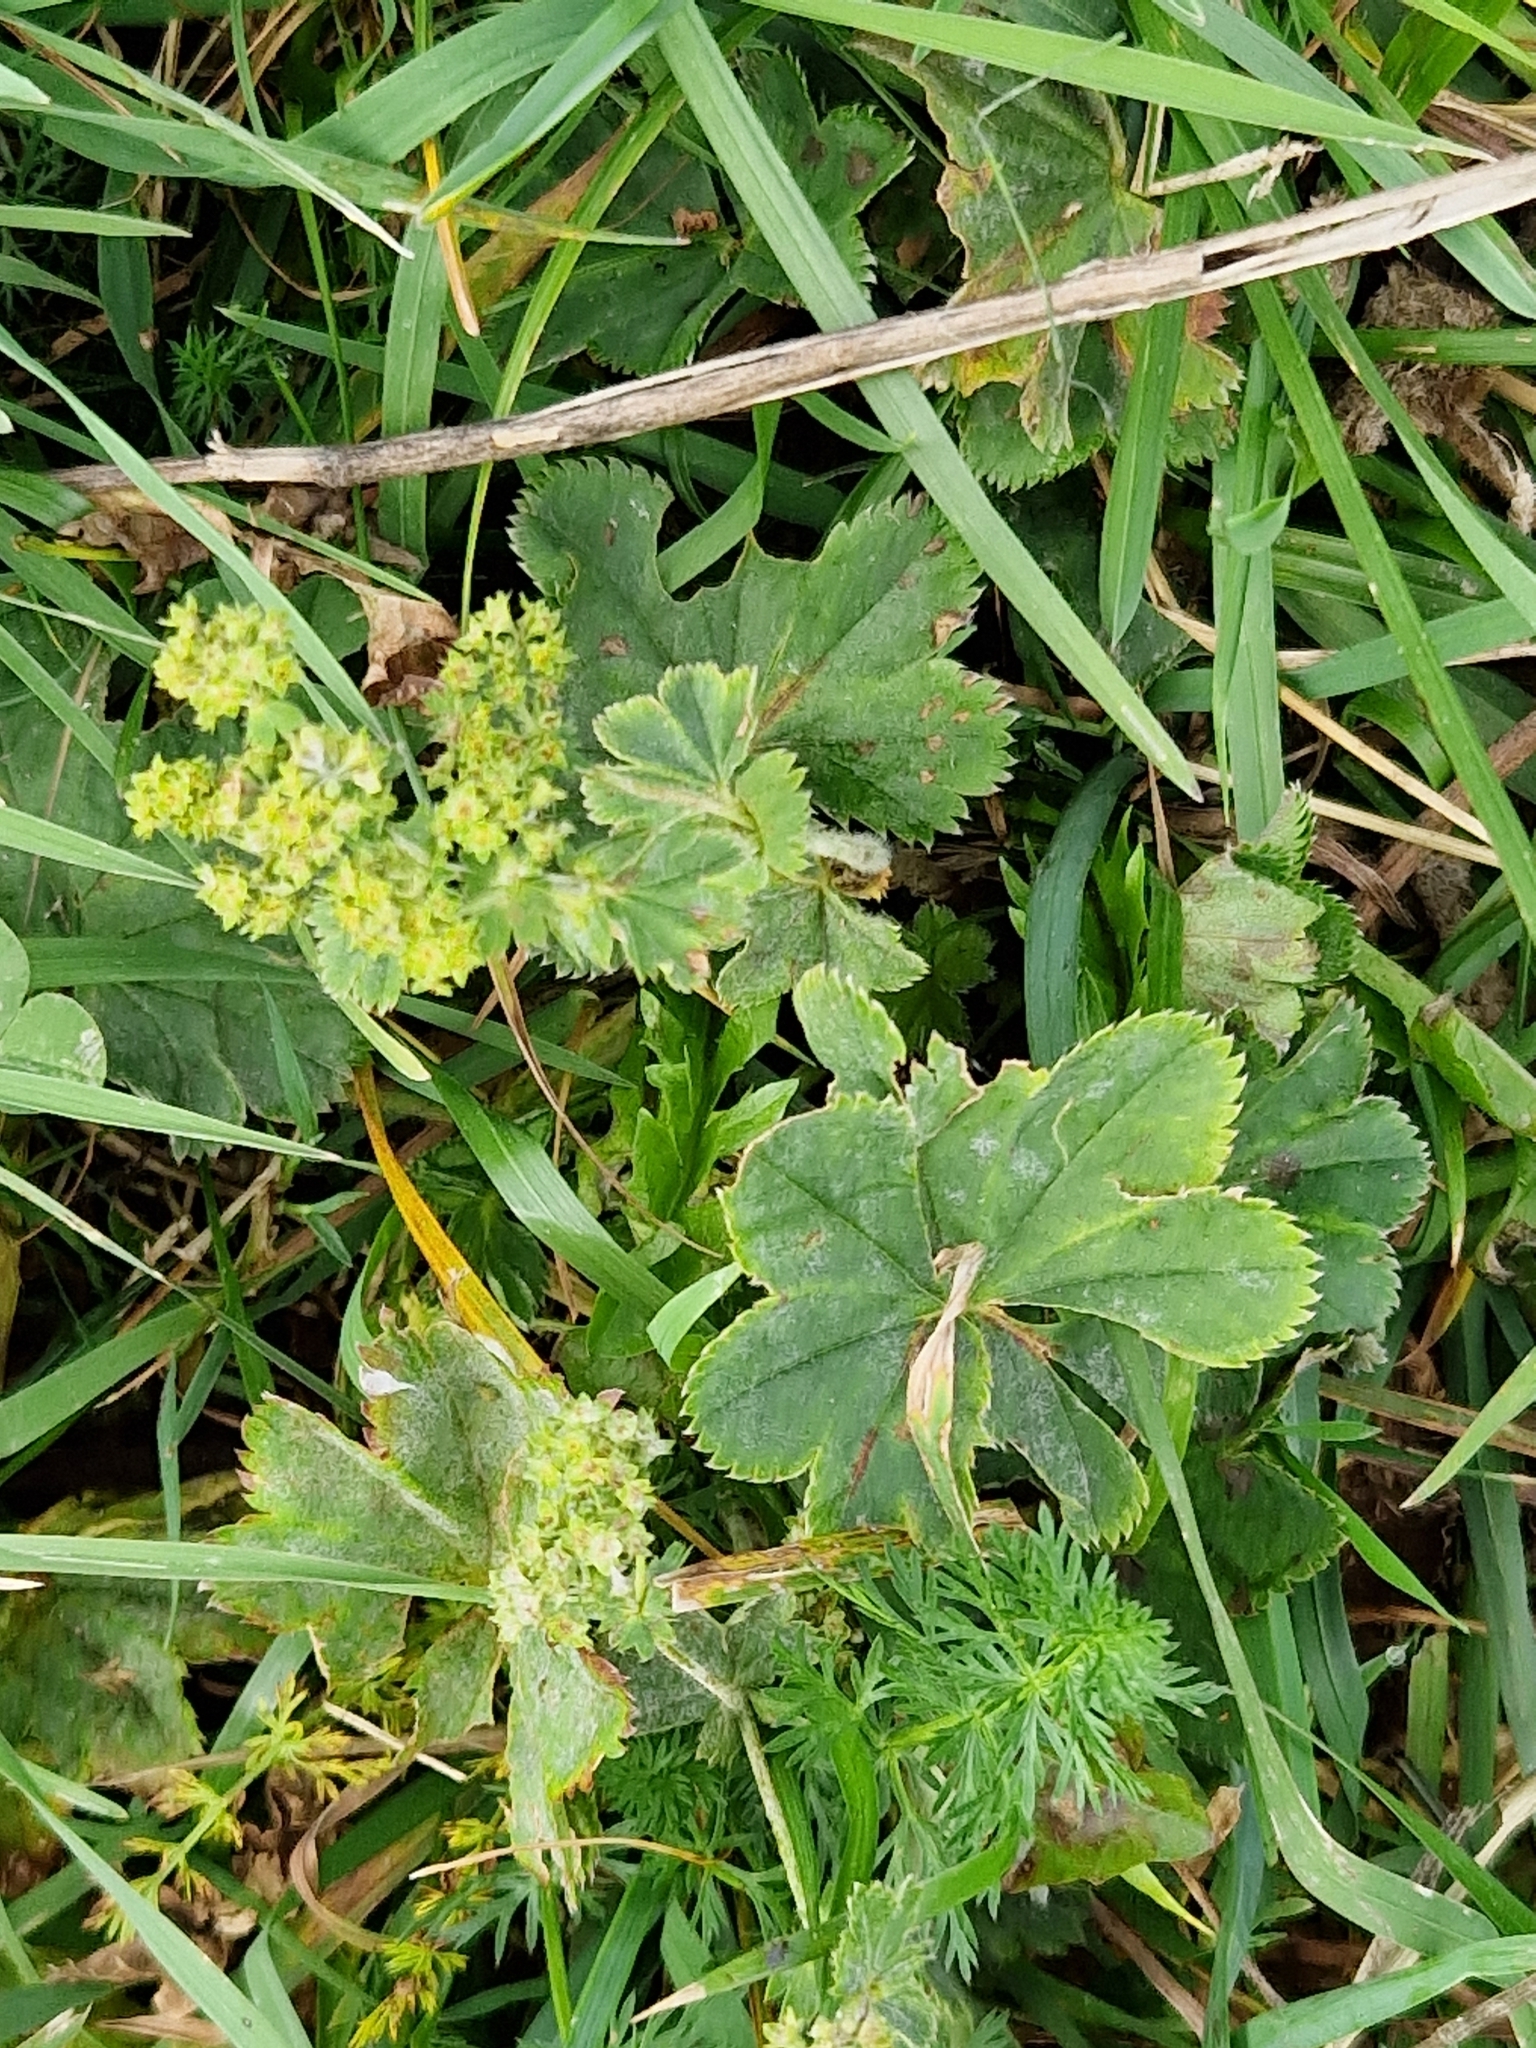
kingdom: Plantae
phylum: Tracheophyta
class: Magnoliopsida
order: Rosales
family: Rosaceae
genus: Alchemilla
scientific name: Alchemilla monticola
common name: Hairy lady's mantle
